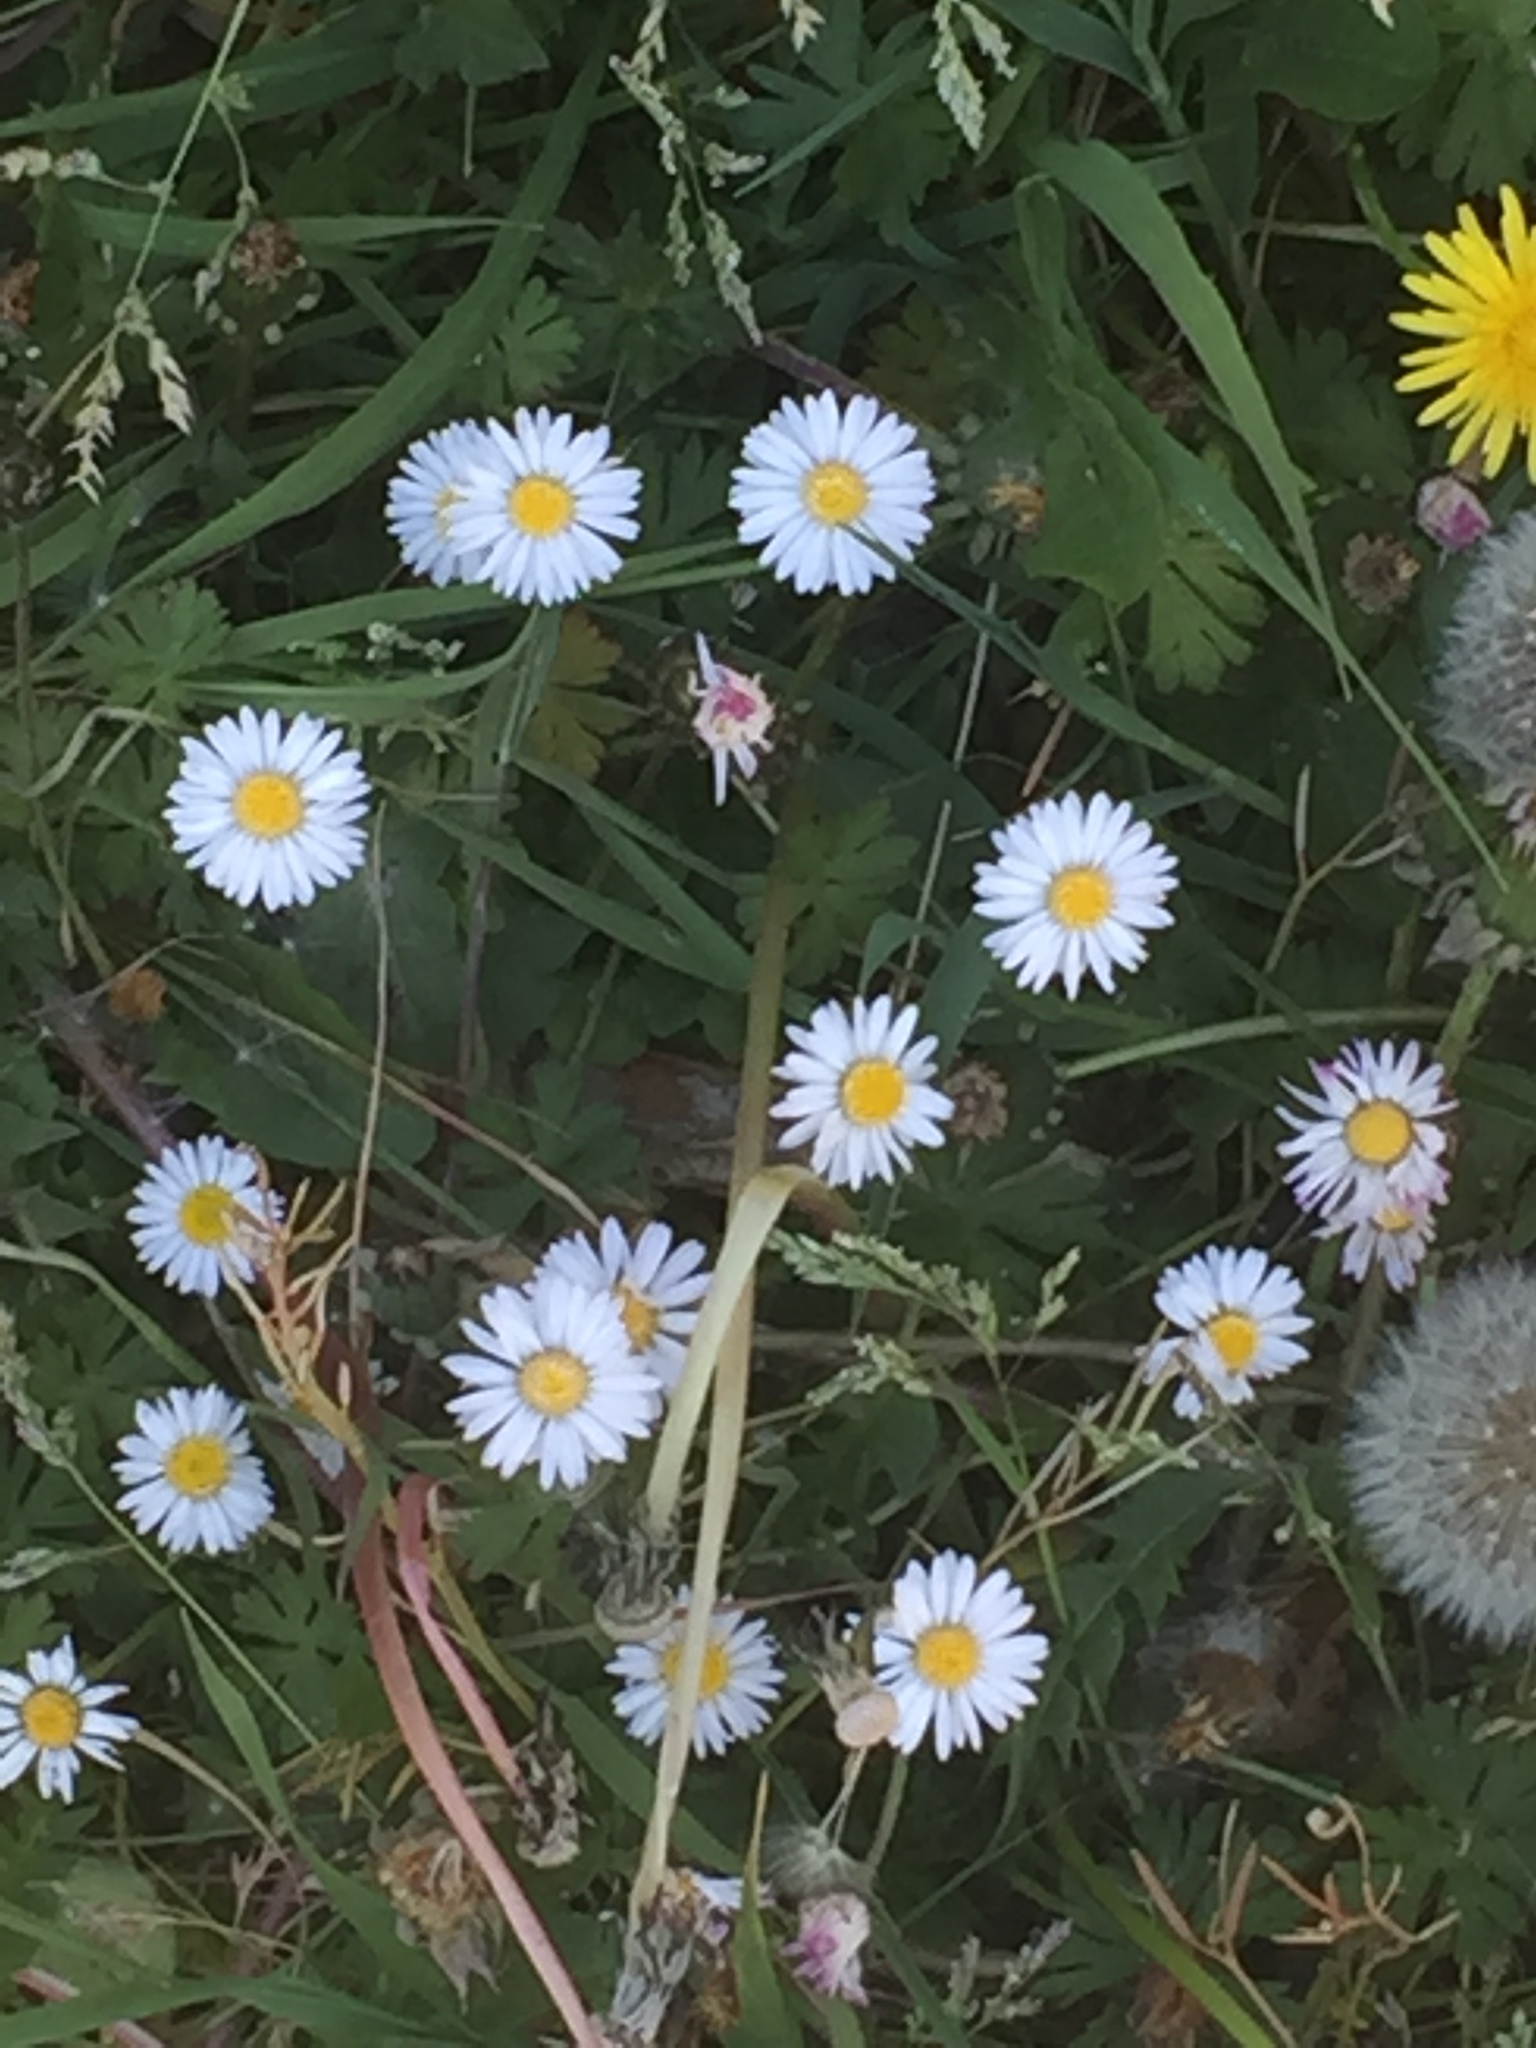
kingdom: Plantae
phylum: Tracheophyta
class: Magnoliopsida
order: Asterales
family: Asteraceae
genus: Bellis
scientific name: Bellis perennis
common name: Lawndaisy
